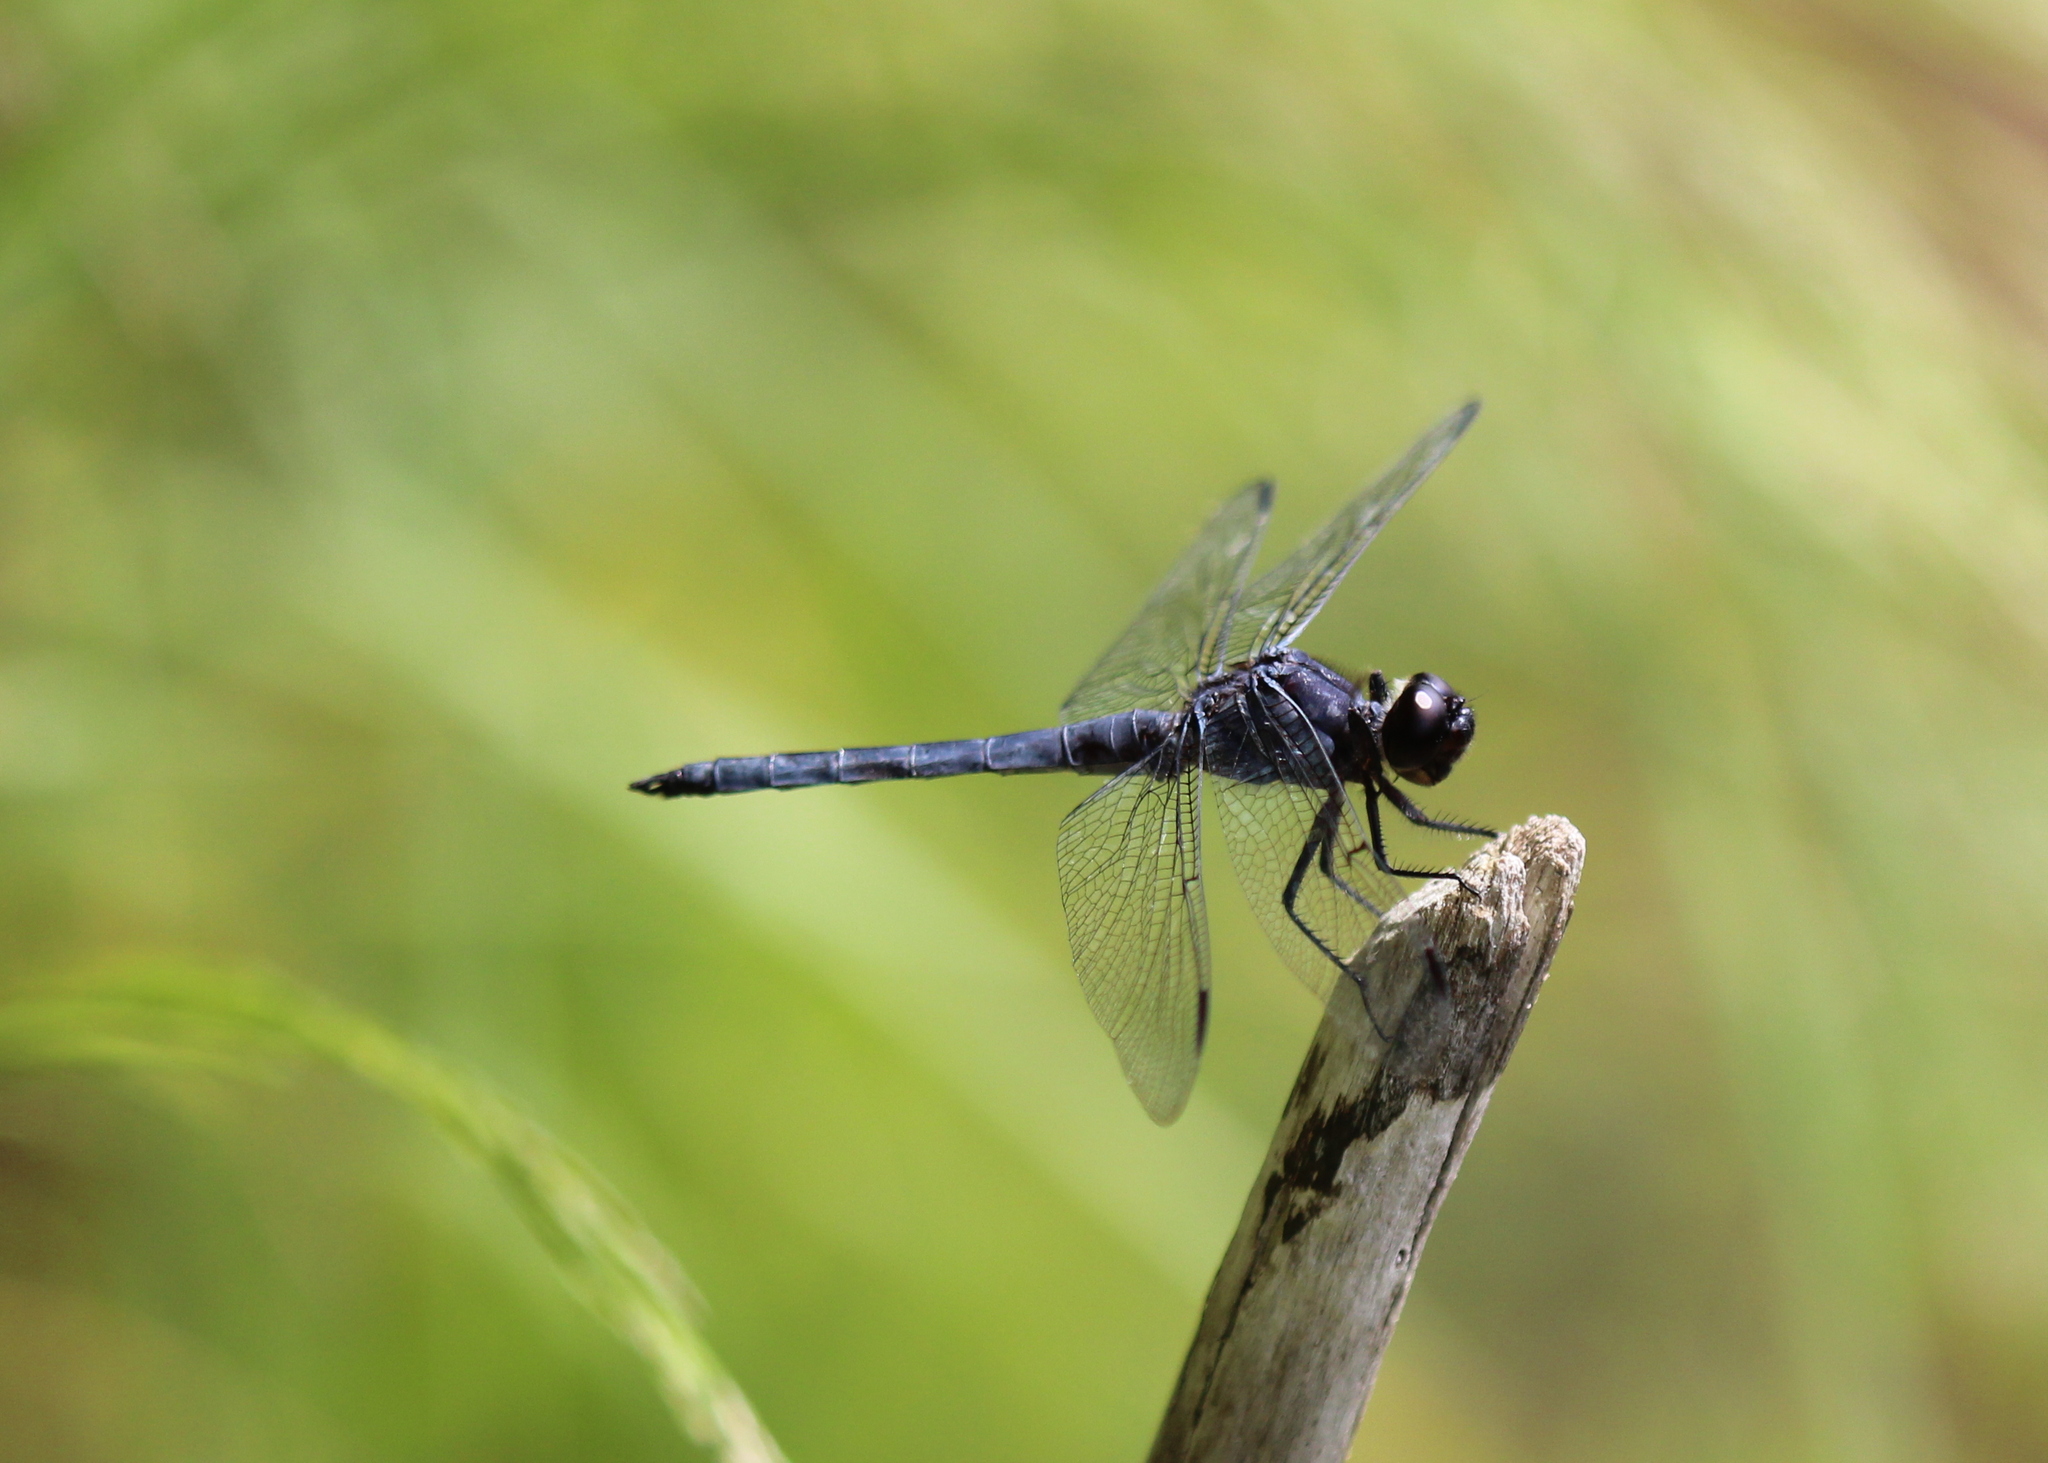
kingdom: Animalia
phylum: Arthropoda
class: Insecta
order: Odonata
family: Libellulidae
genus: Libellula
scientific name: Libellula incesta
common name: Slaty skimmer
